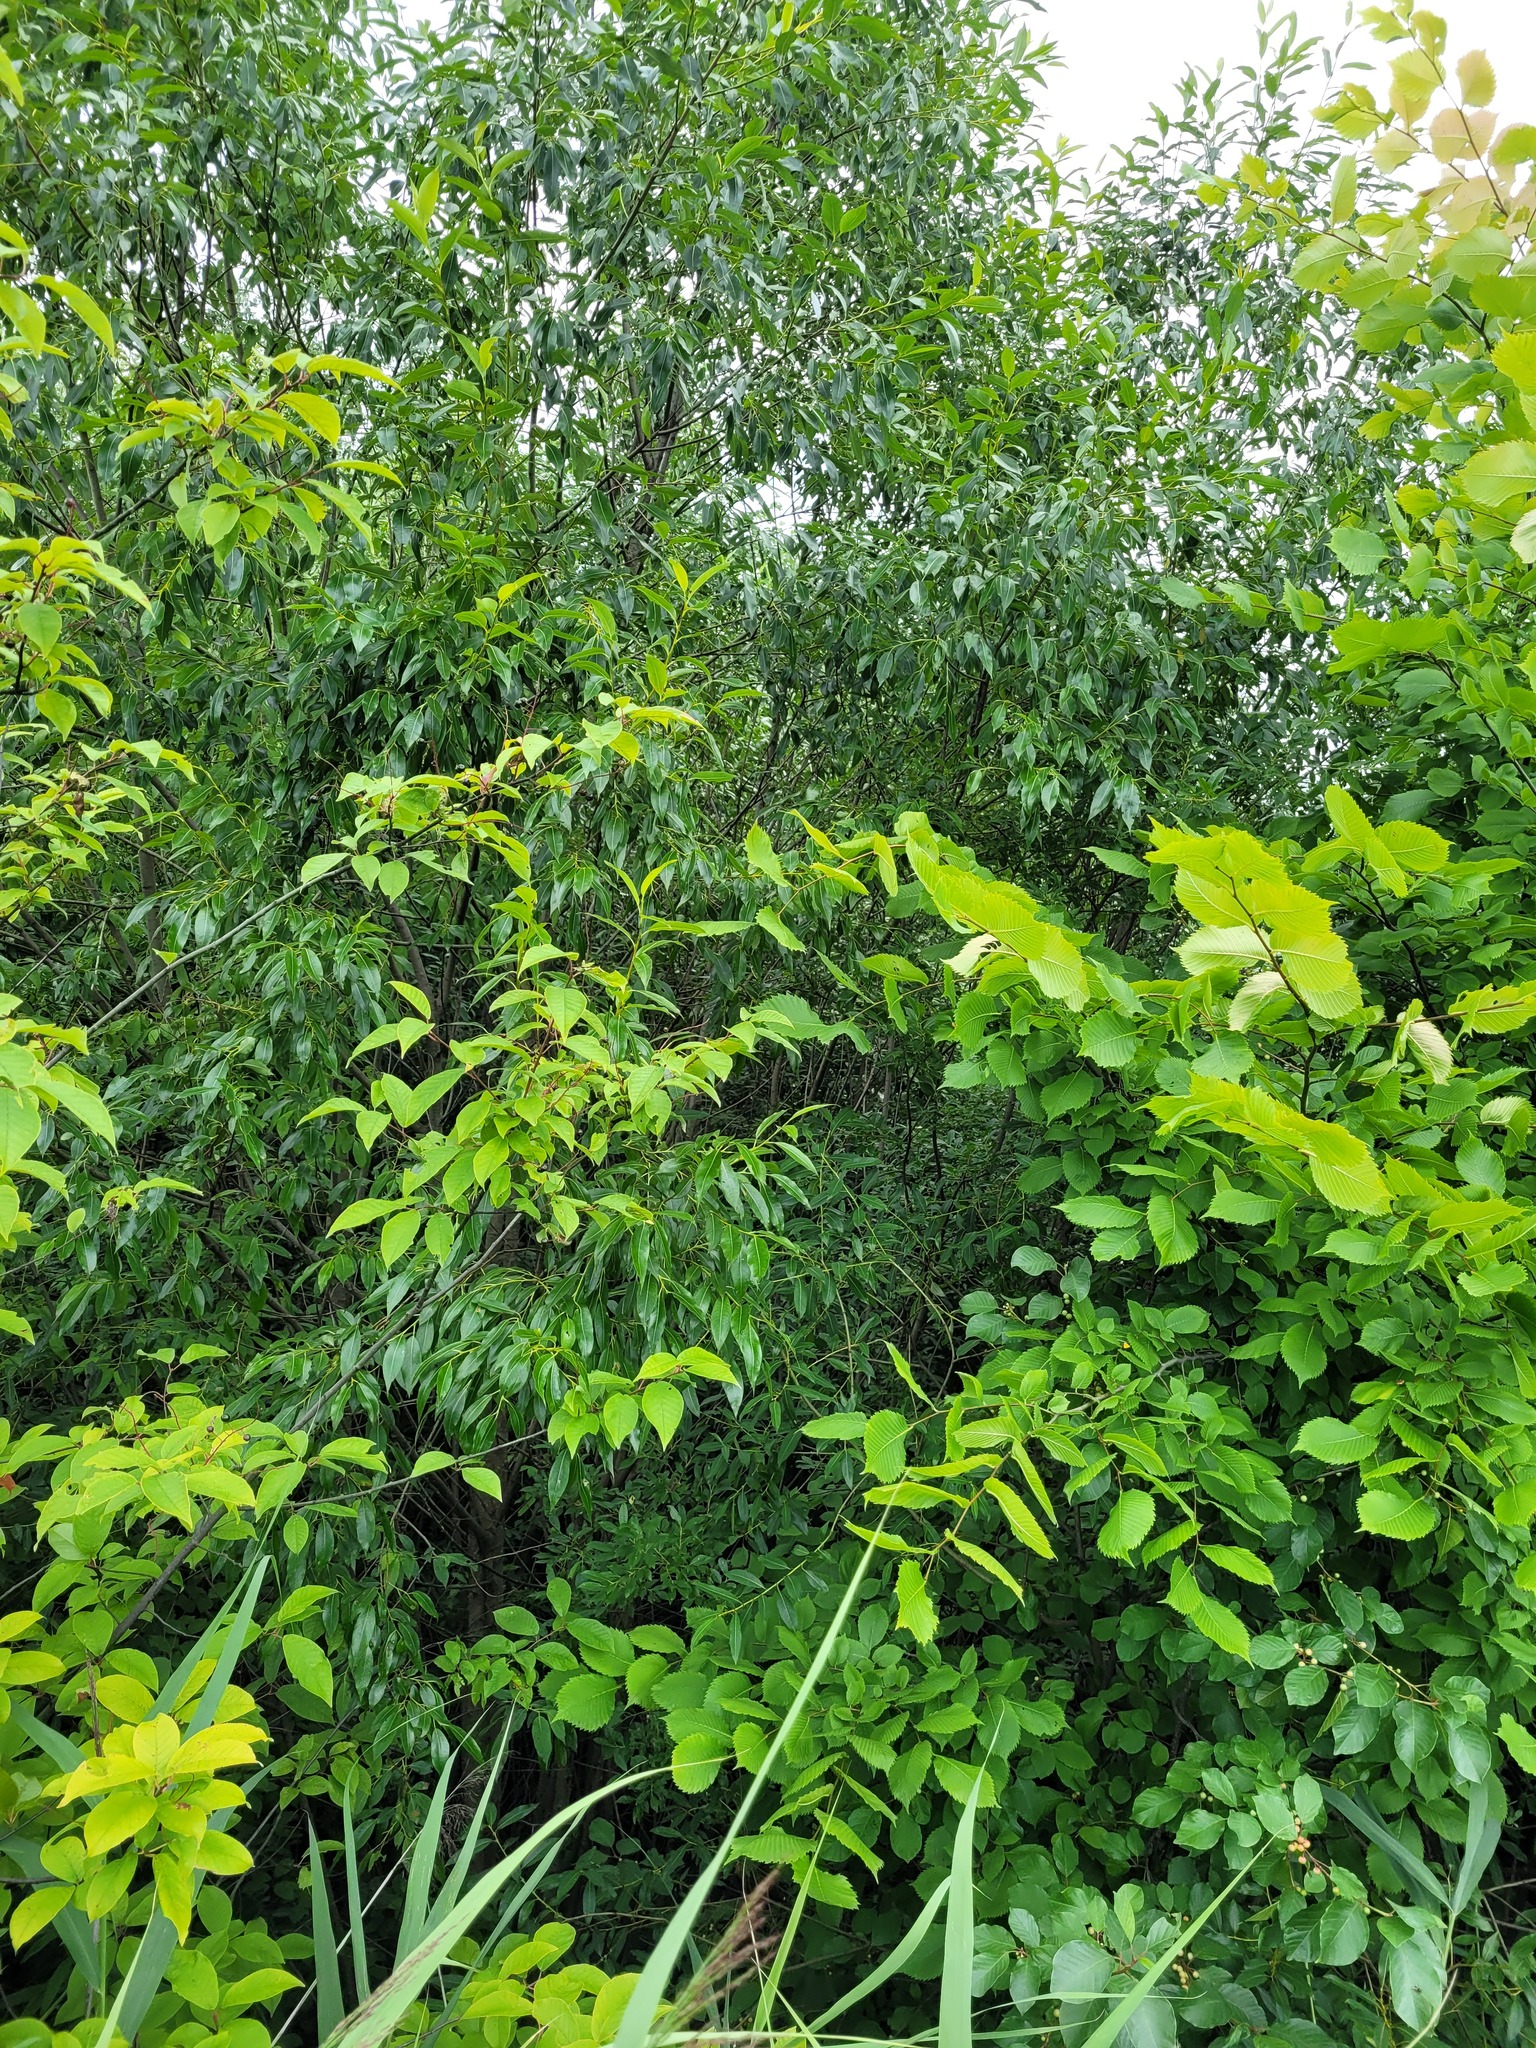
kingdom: Plantae
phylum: Tracheophyta
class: Magnoliopsida
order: Rosales
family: Rosaceae
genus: Prunus
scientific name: Prunus padus
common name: Bird cherry
